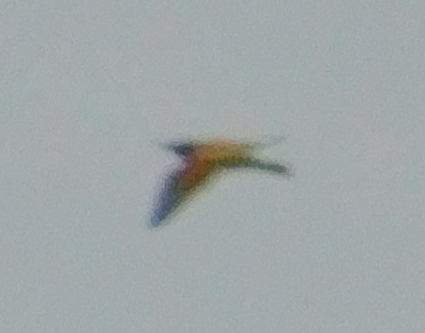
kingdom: Animalia
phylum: Chordata
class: Aves
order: Coraciiformes
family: Meropidae
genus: Merops
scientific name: Merops apiaster
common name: European bee-eater
